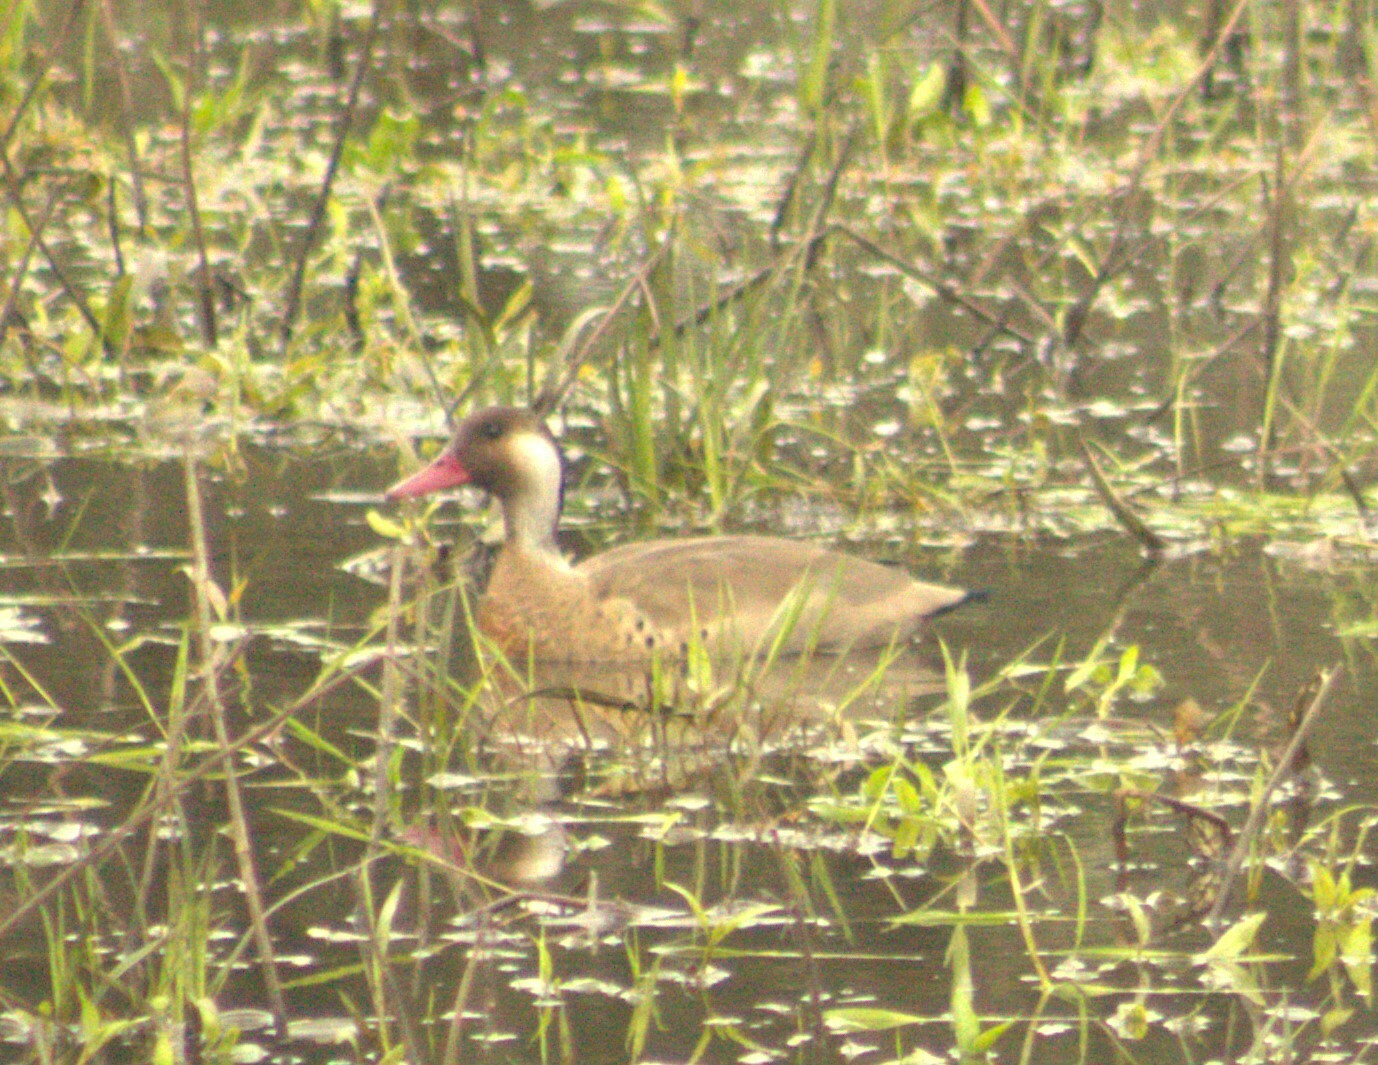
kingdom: Animalia
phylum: Chordata
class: Aves
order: Anseriformes
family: Anatidae
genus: Amazonetta
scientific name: Amazonetta brasiliensis
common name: Brazilian teal
